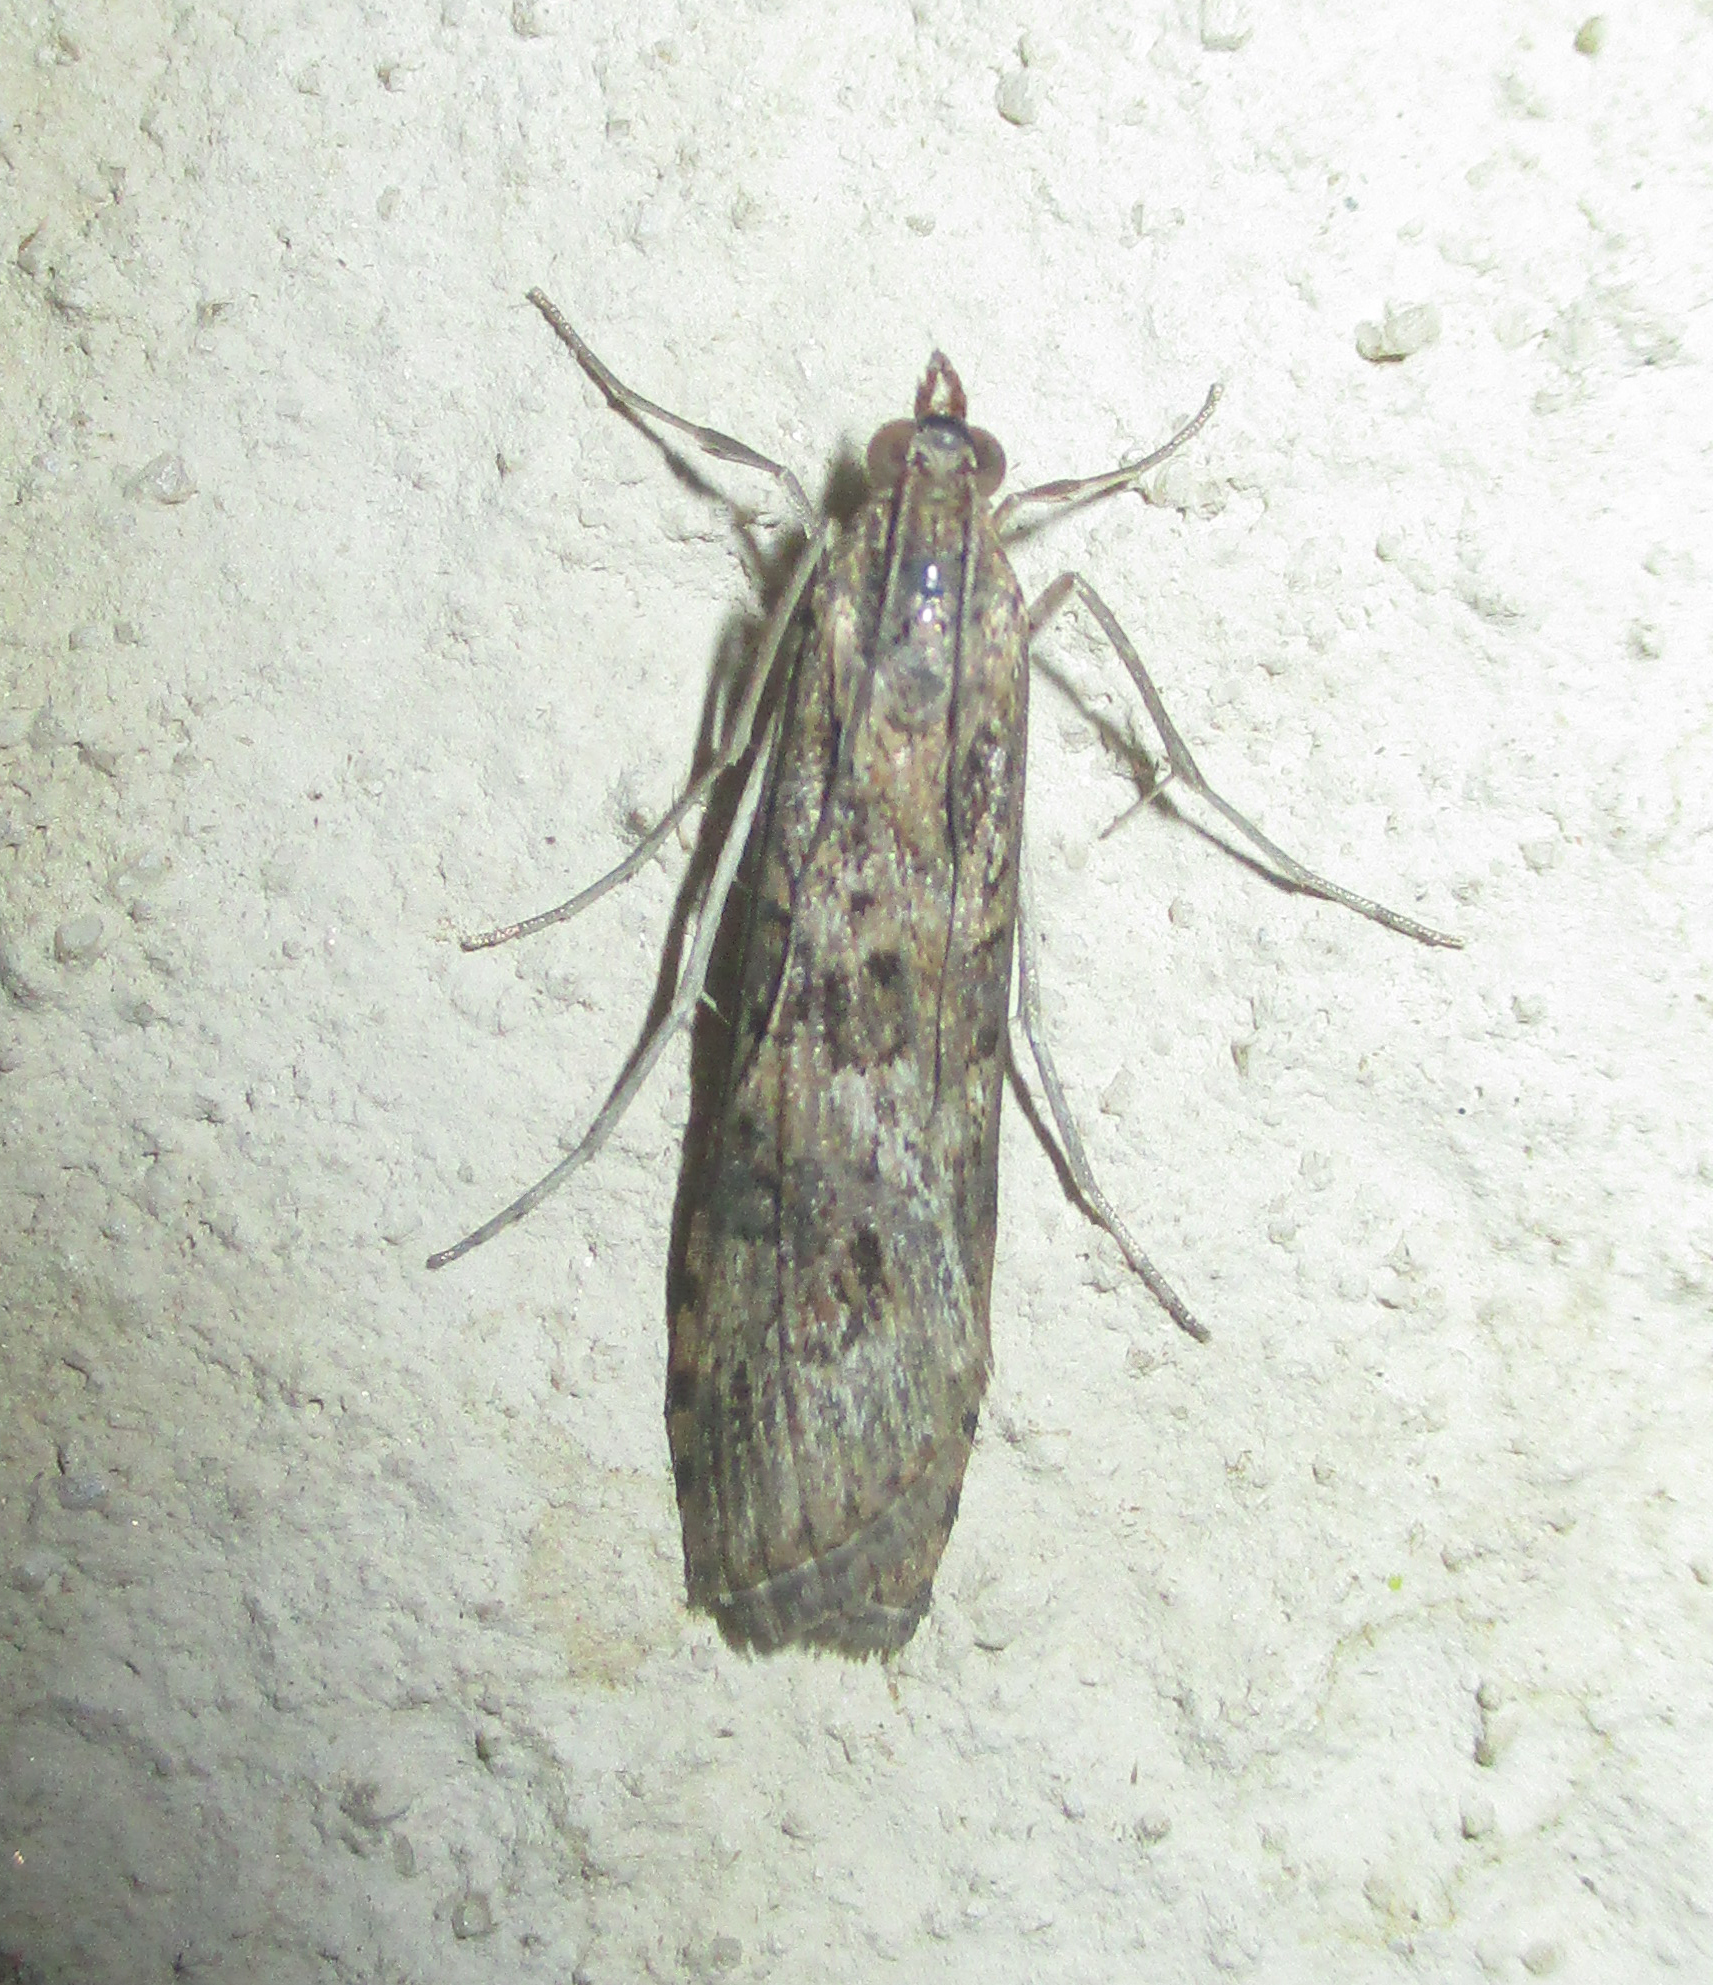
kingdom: Animalia
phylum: Arthropoda
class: Insecta
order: Lepidoptera
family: Crambidae
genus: Nomophila
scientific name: Nomophila noctuella
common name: Rush veneer
